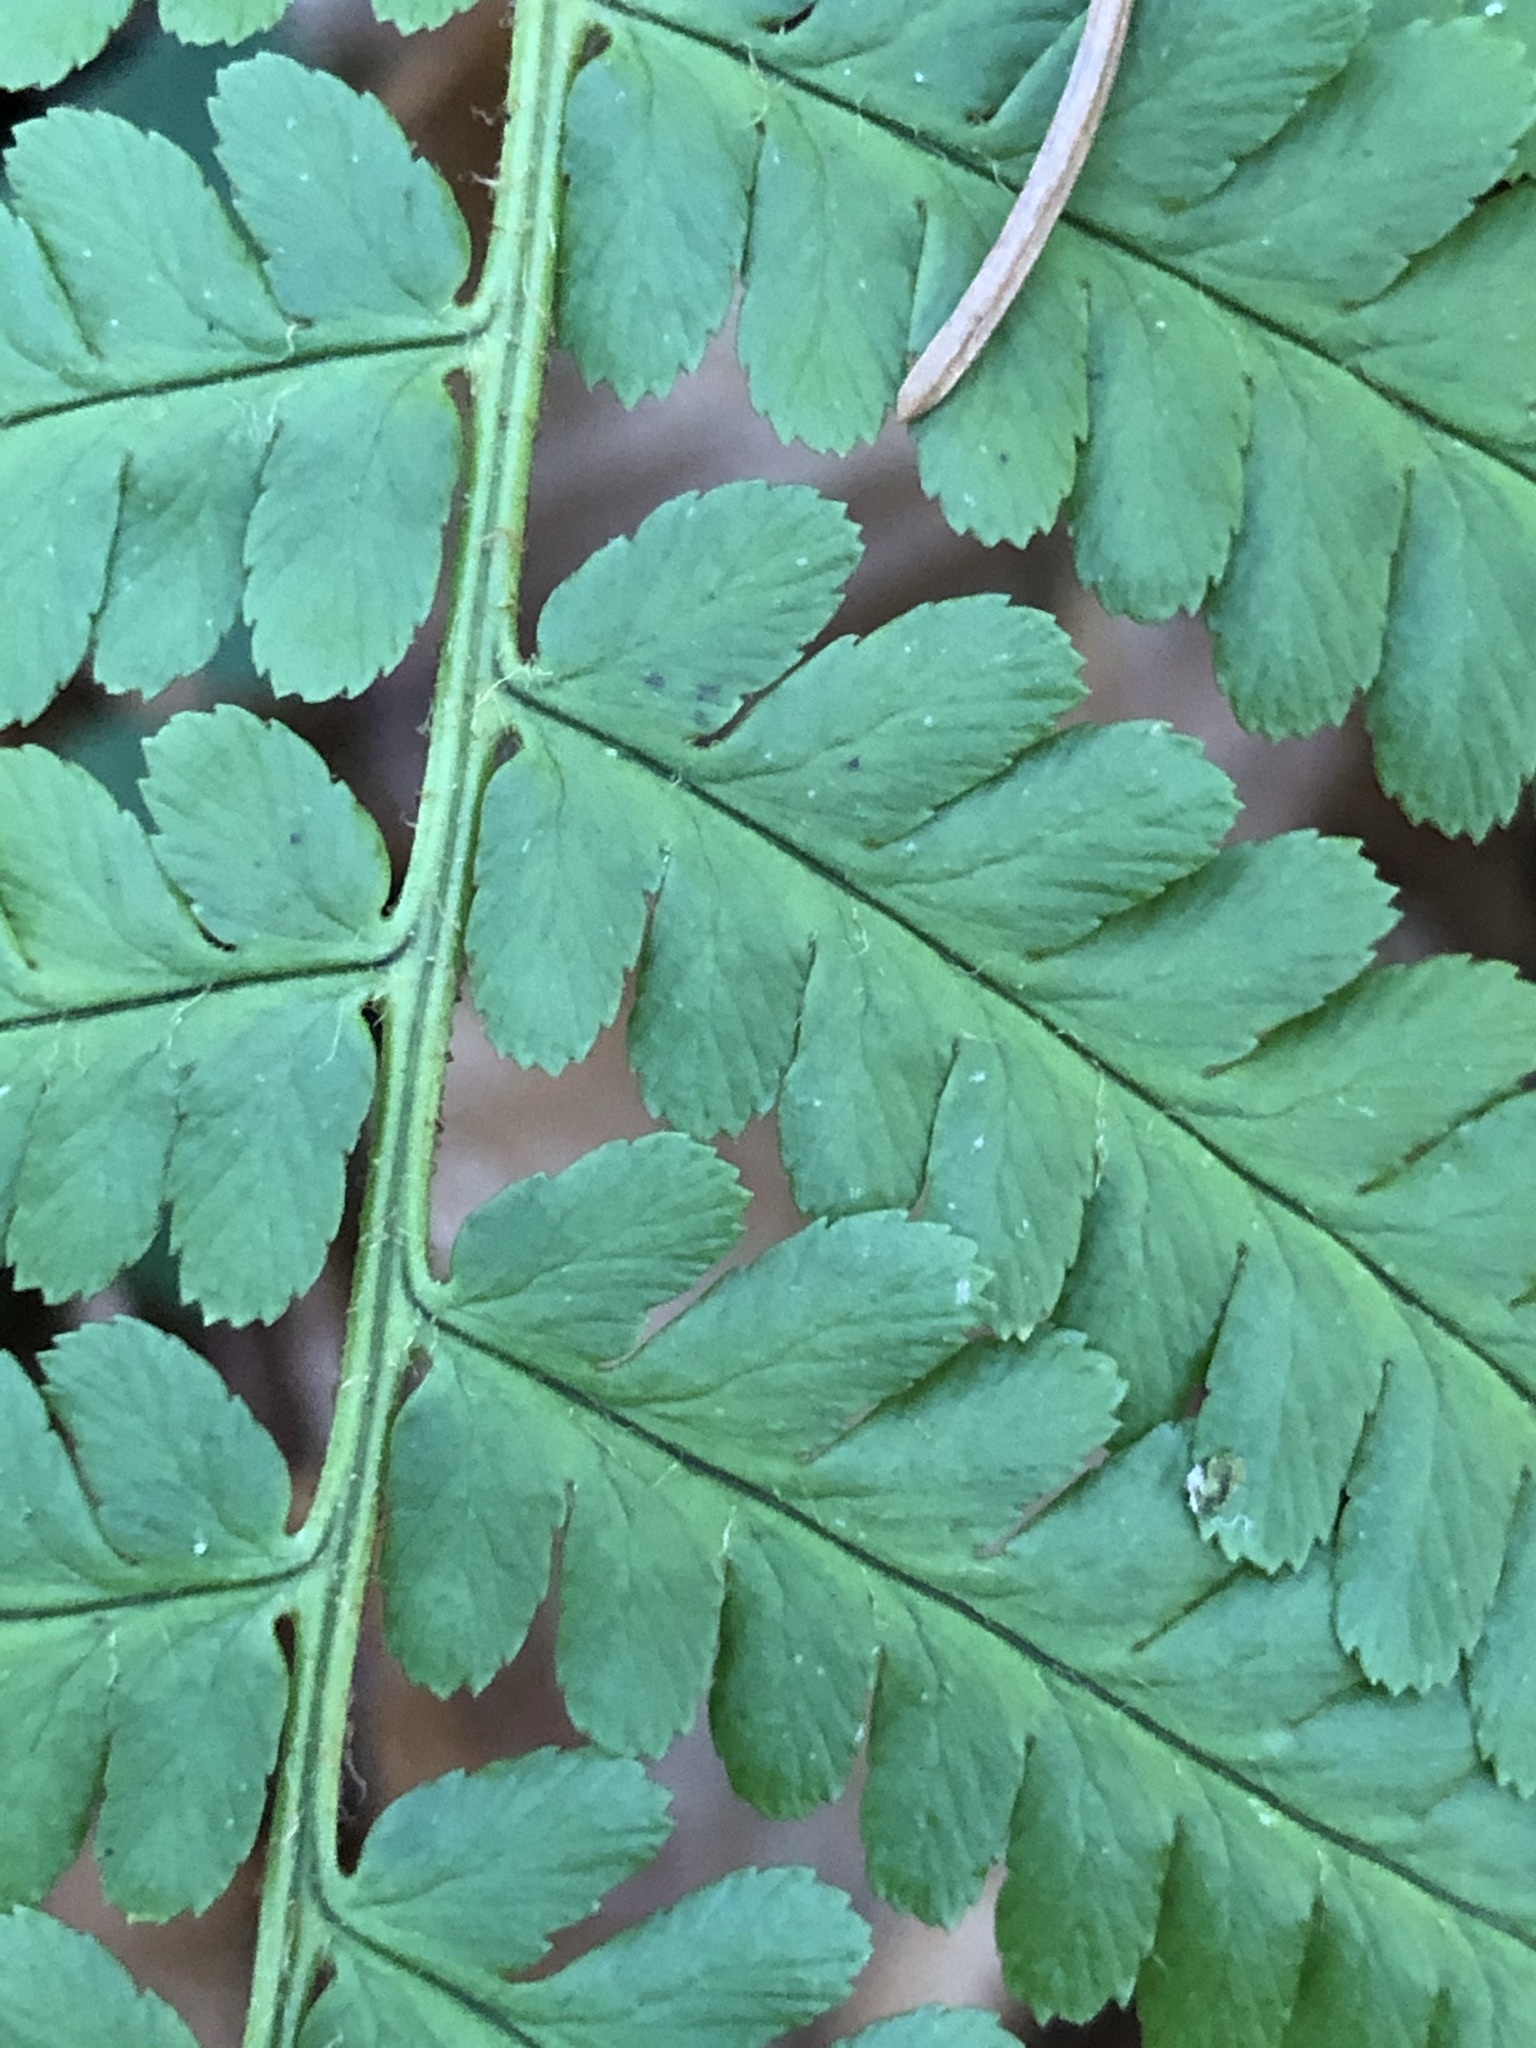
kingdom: Plantae
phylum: Tracheophyta
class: Polypodiopsida
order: Polypodiales
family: Dryopteridaceae
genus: Dryopteris
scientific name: Dryopteris filix-mas
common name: Male fern
